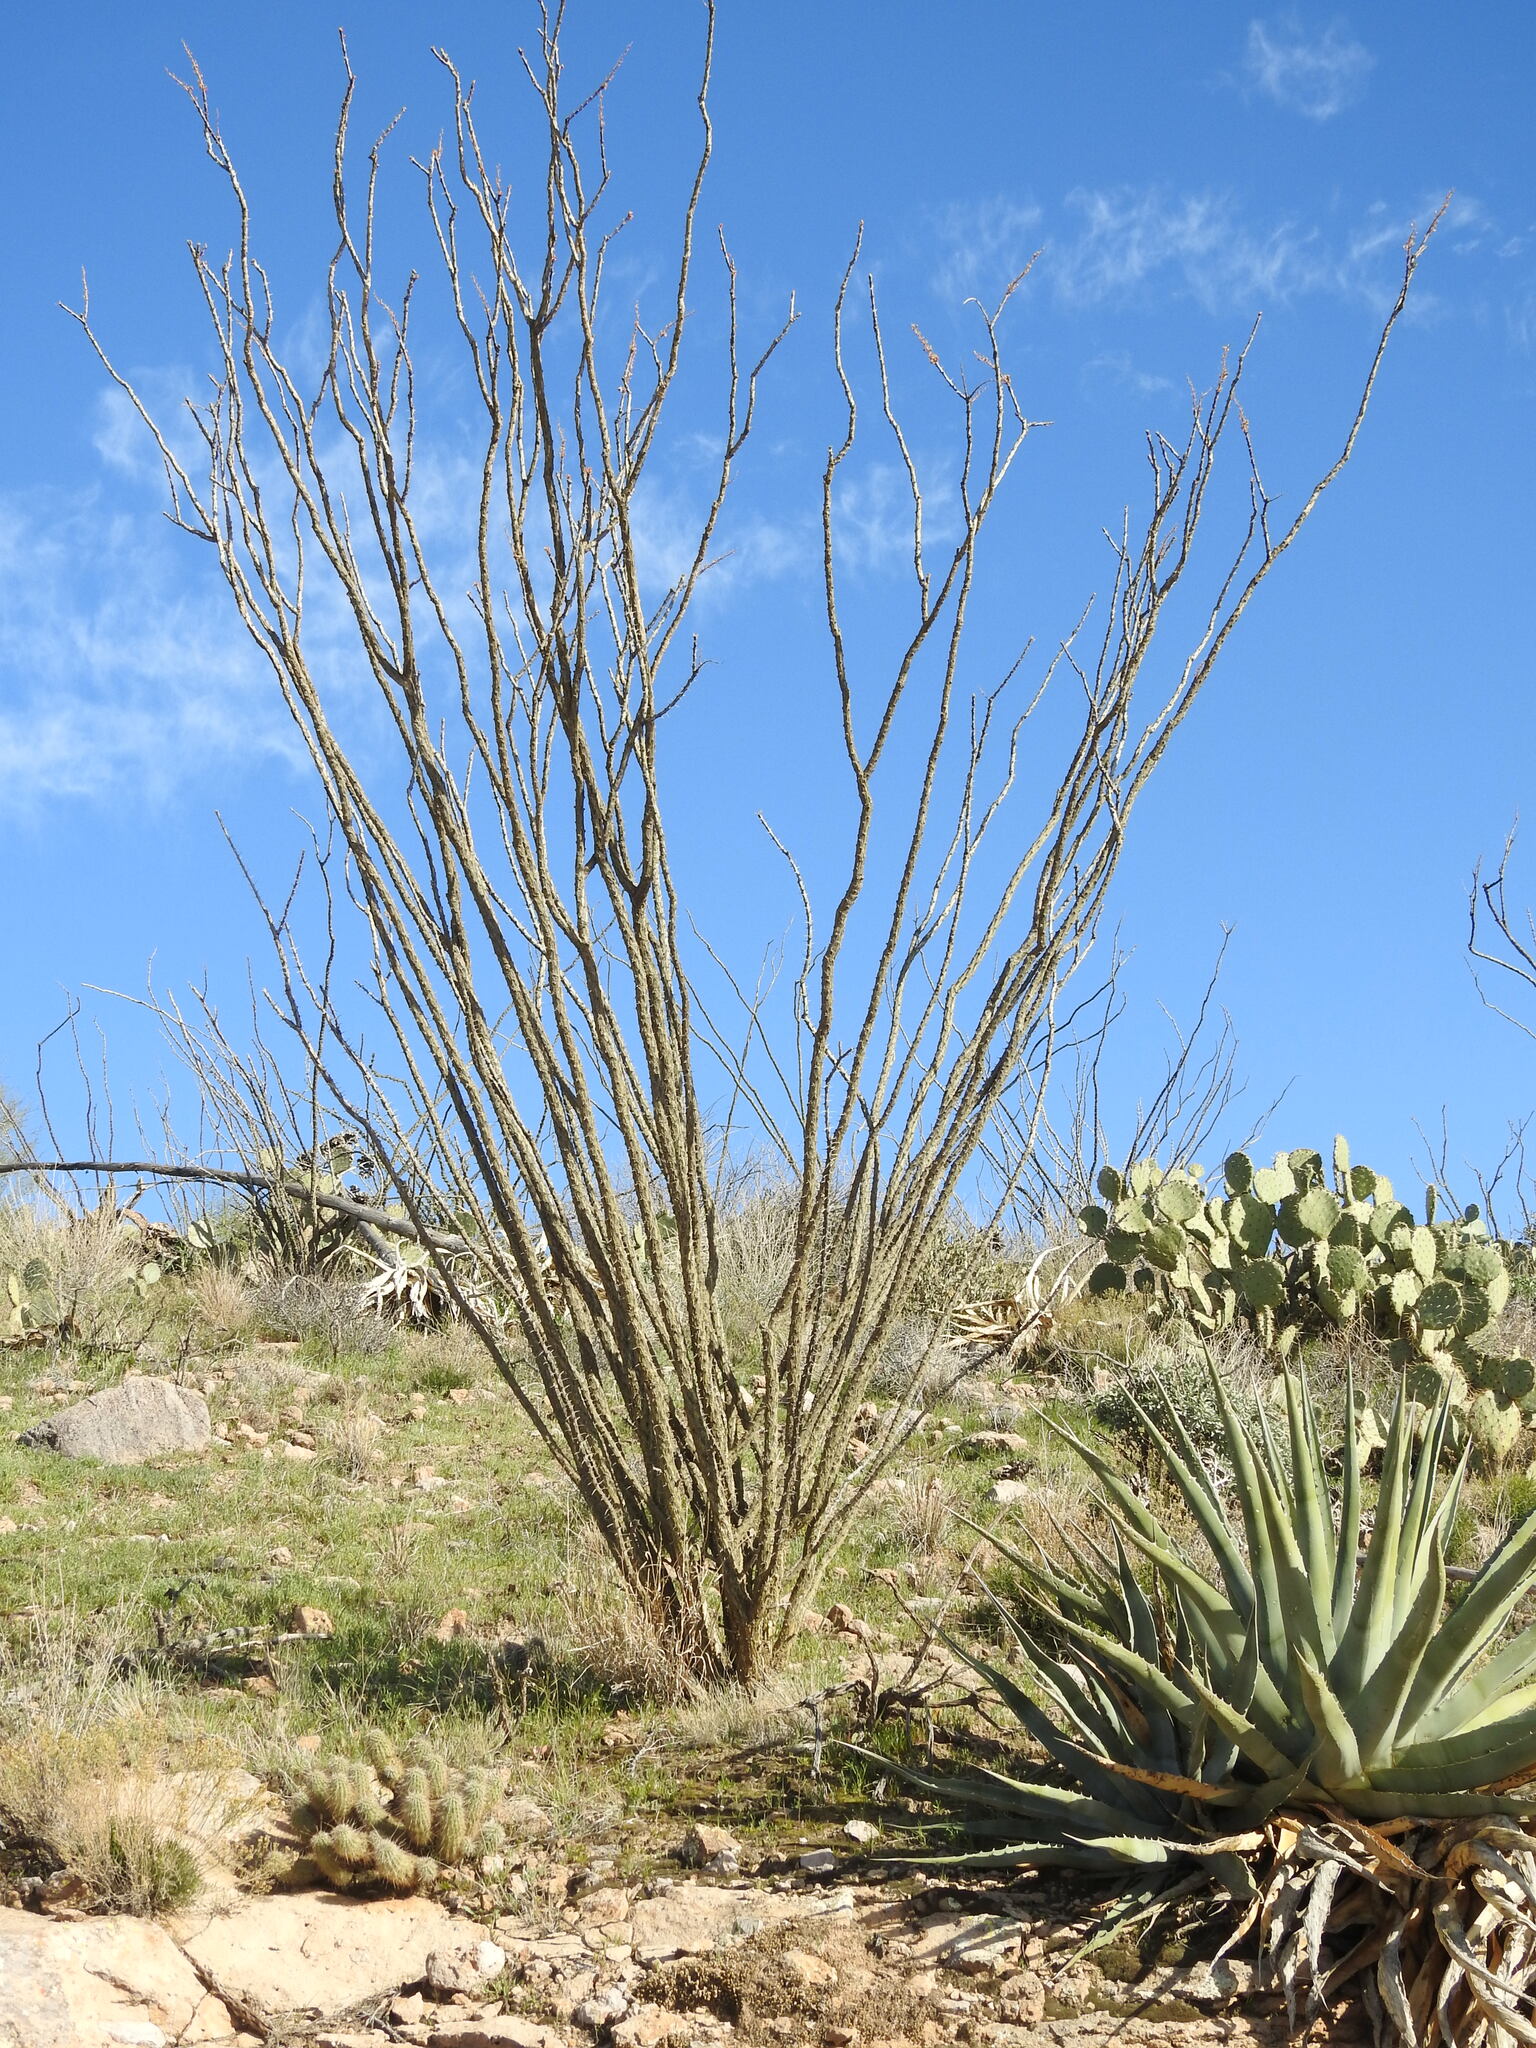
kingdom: Plantae
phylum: Tracheophyta
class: Magnoliopsida
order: Ericales
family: Fouquieriaceae
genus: Fouquieria
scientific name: Fouquieria splendens
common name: Vine-cactus
